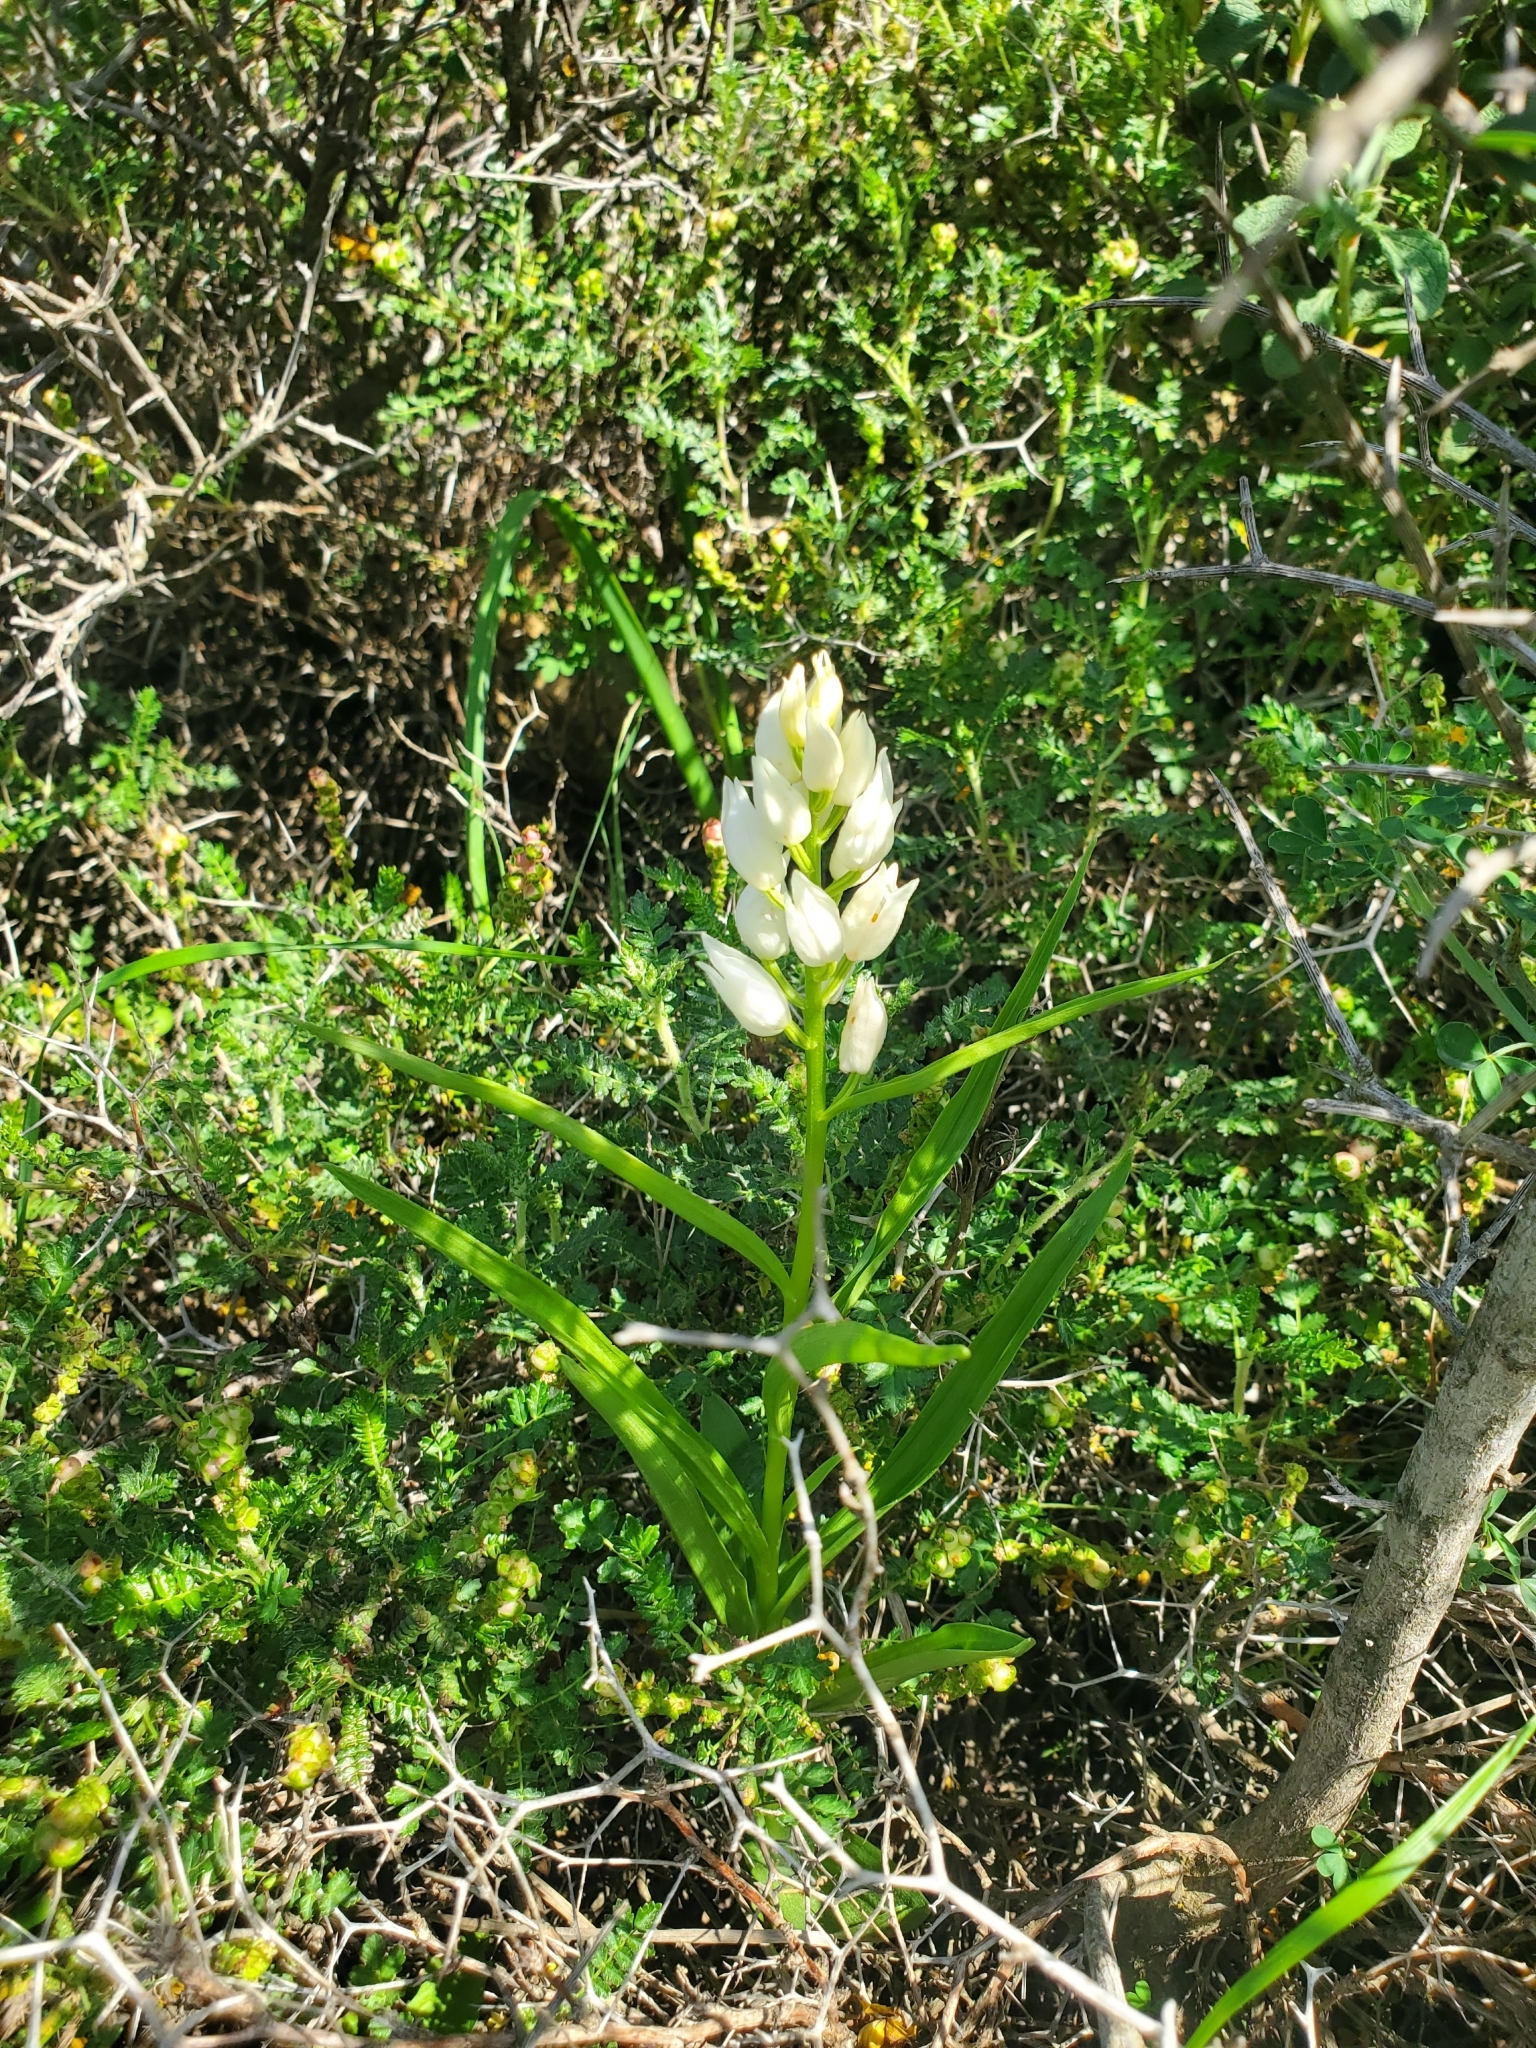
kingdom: Plantae
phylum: Tracheophyta
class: Liliopsida
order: Asparagales
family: Orchidaceae
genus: Cephalanthera
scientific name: Cephalanthera longifolia
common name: Narrow-leaved helleborine
